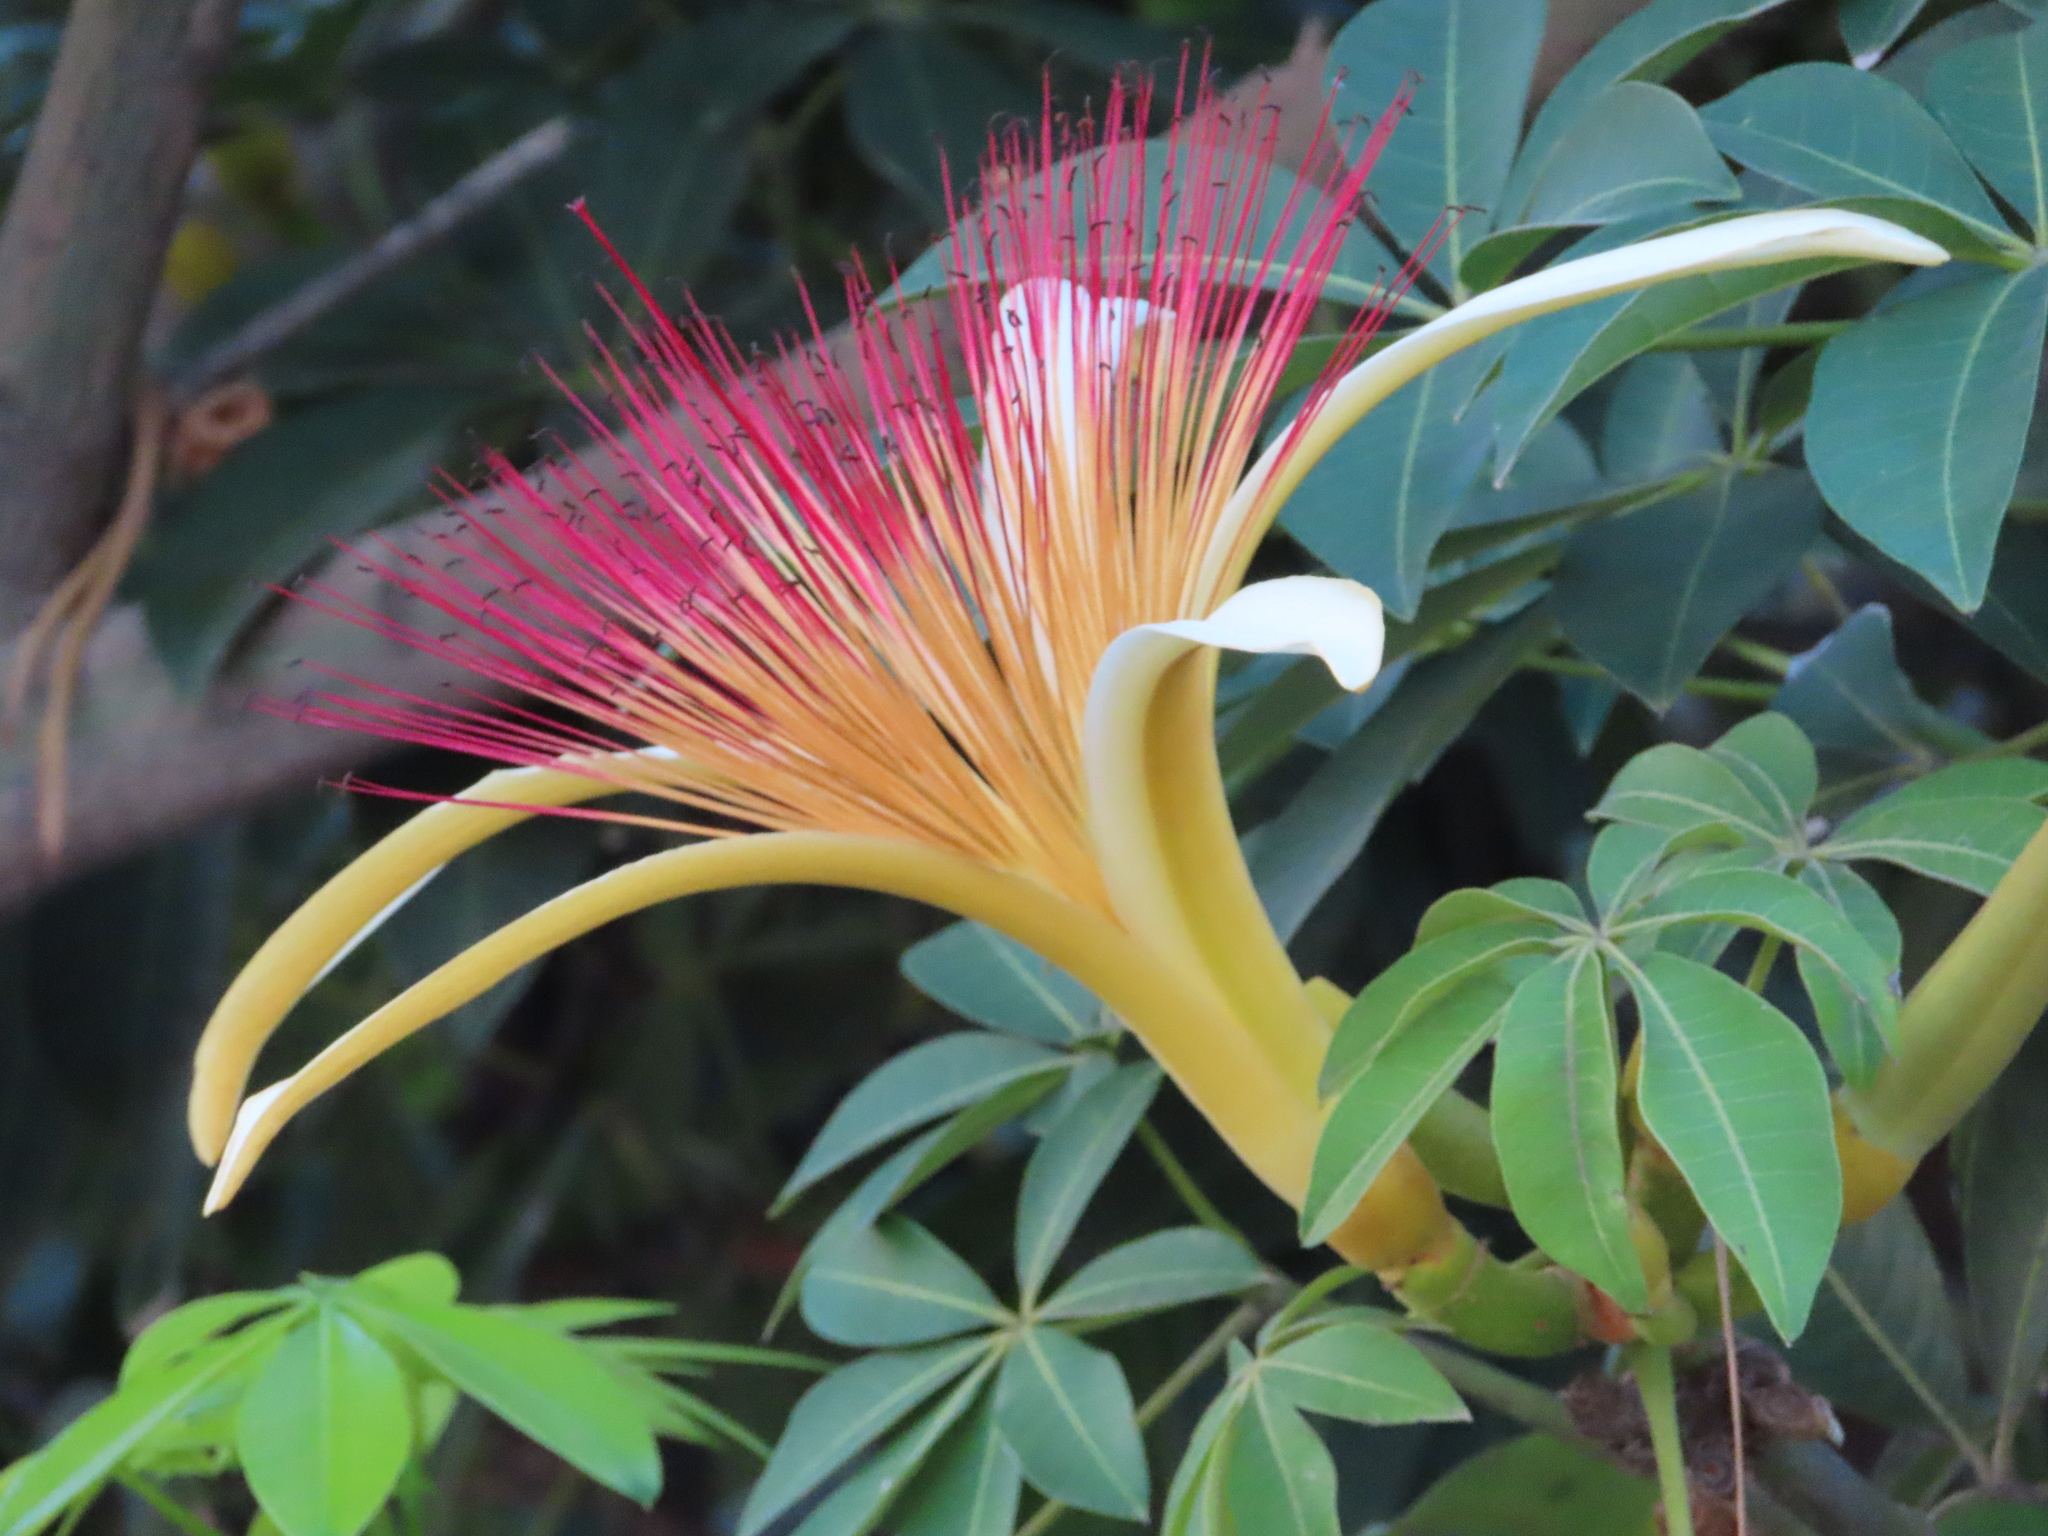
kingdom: Plantae
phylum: Tracheophyta
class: Magnoliopsida
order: Malvales
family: Malvaceae
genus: Pachira
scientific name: Pachira aquatica
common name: Provision-tree
